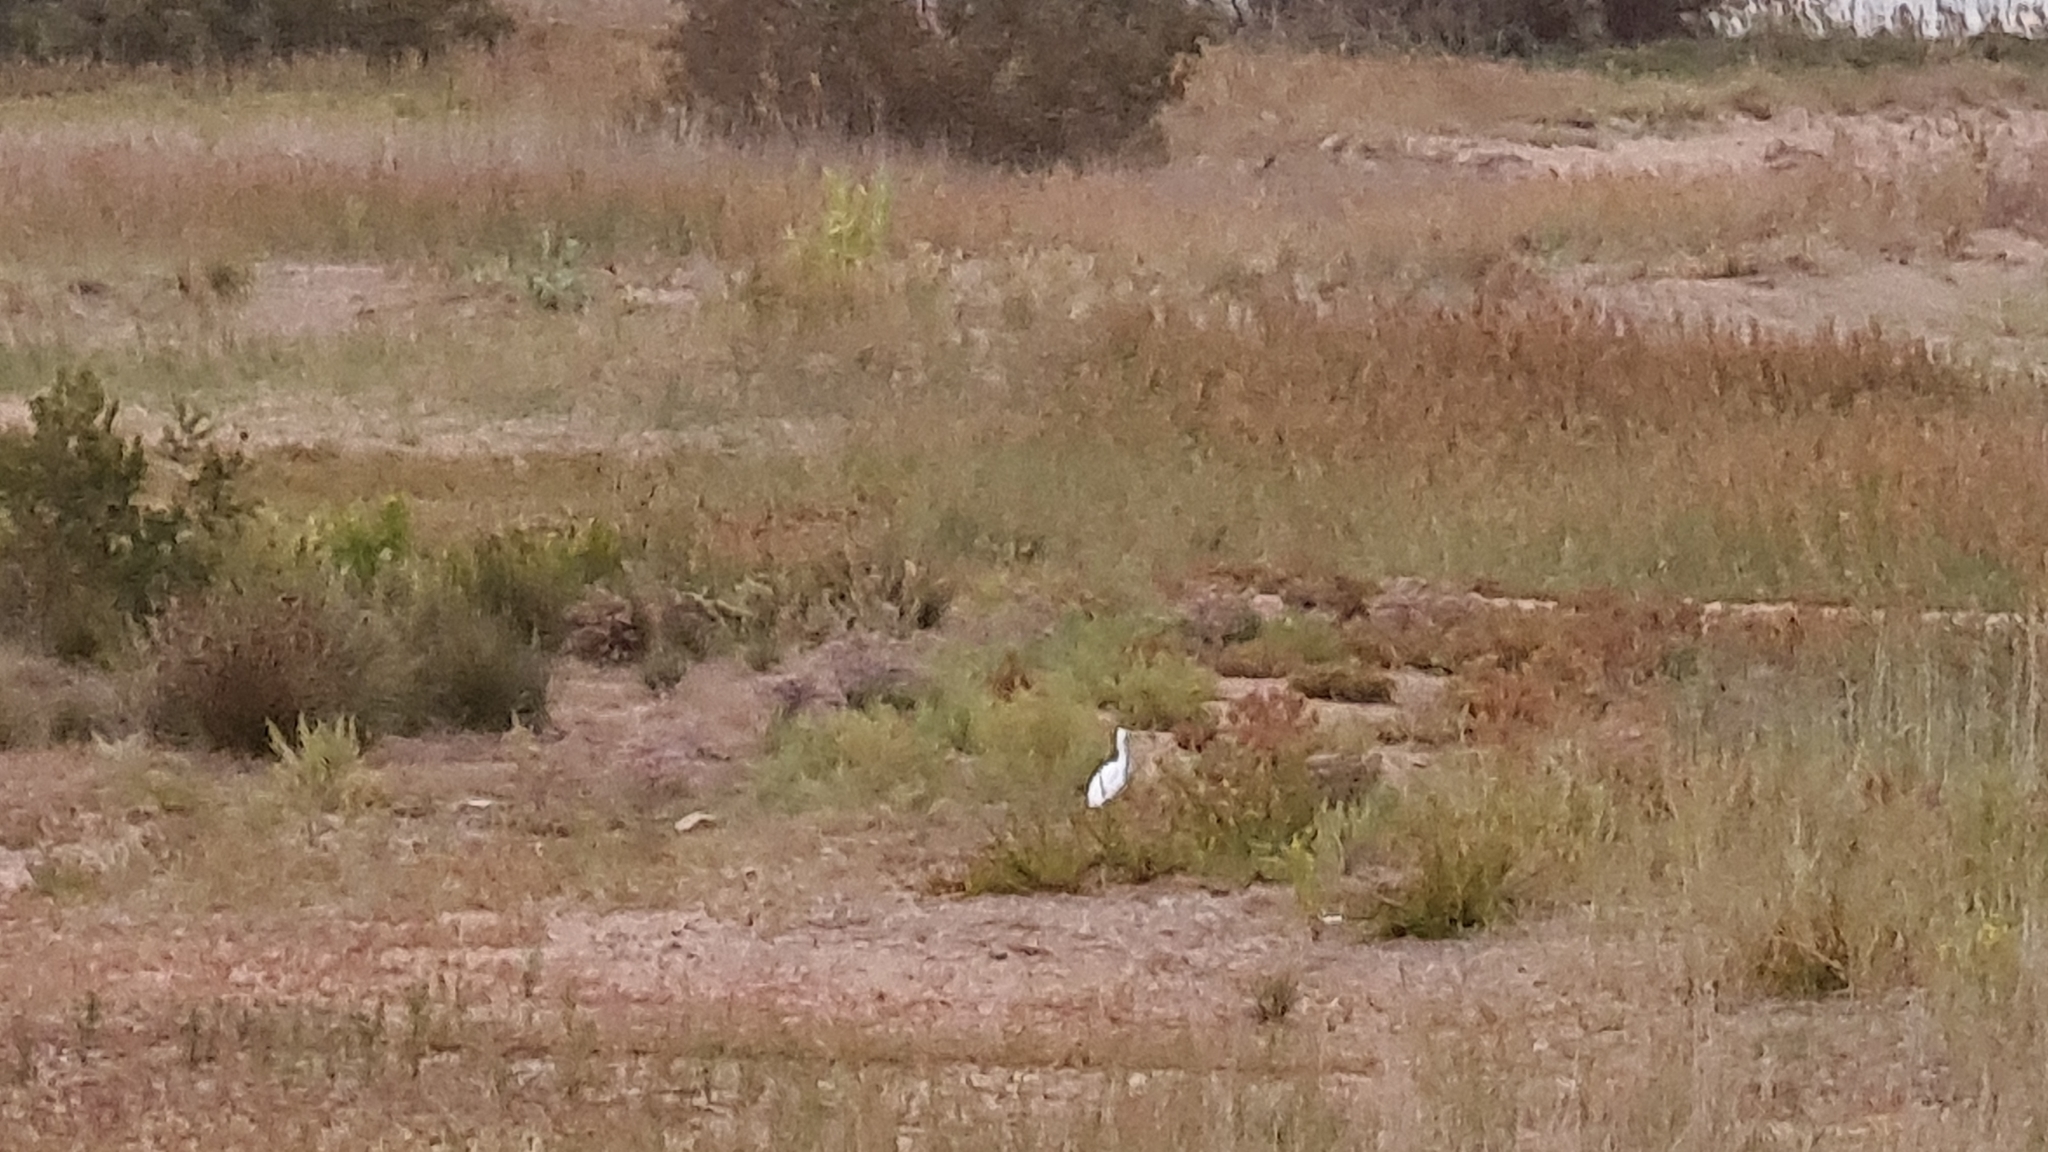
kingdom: Animalia
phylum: Chordata
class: Aves
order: Pelecaniformes
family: Ardeidae
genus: Egretta
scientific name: Egretta garzetta
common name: Little egret
